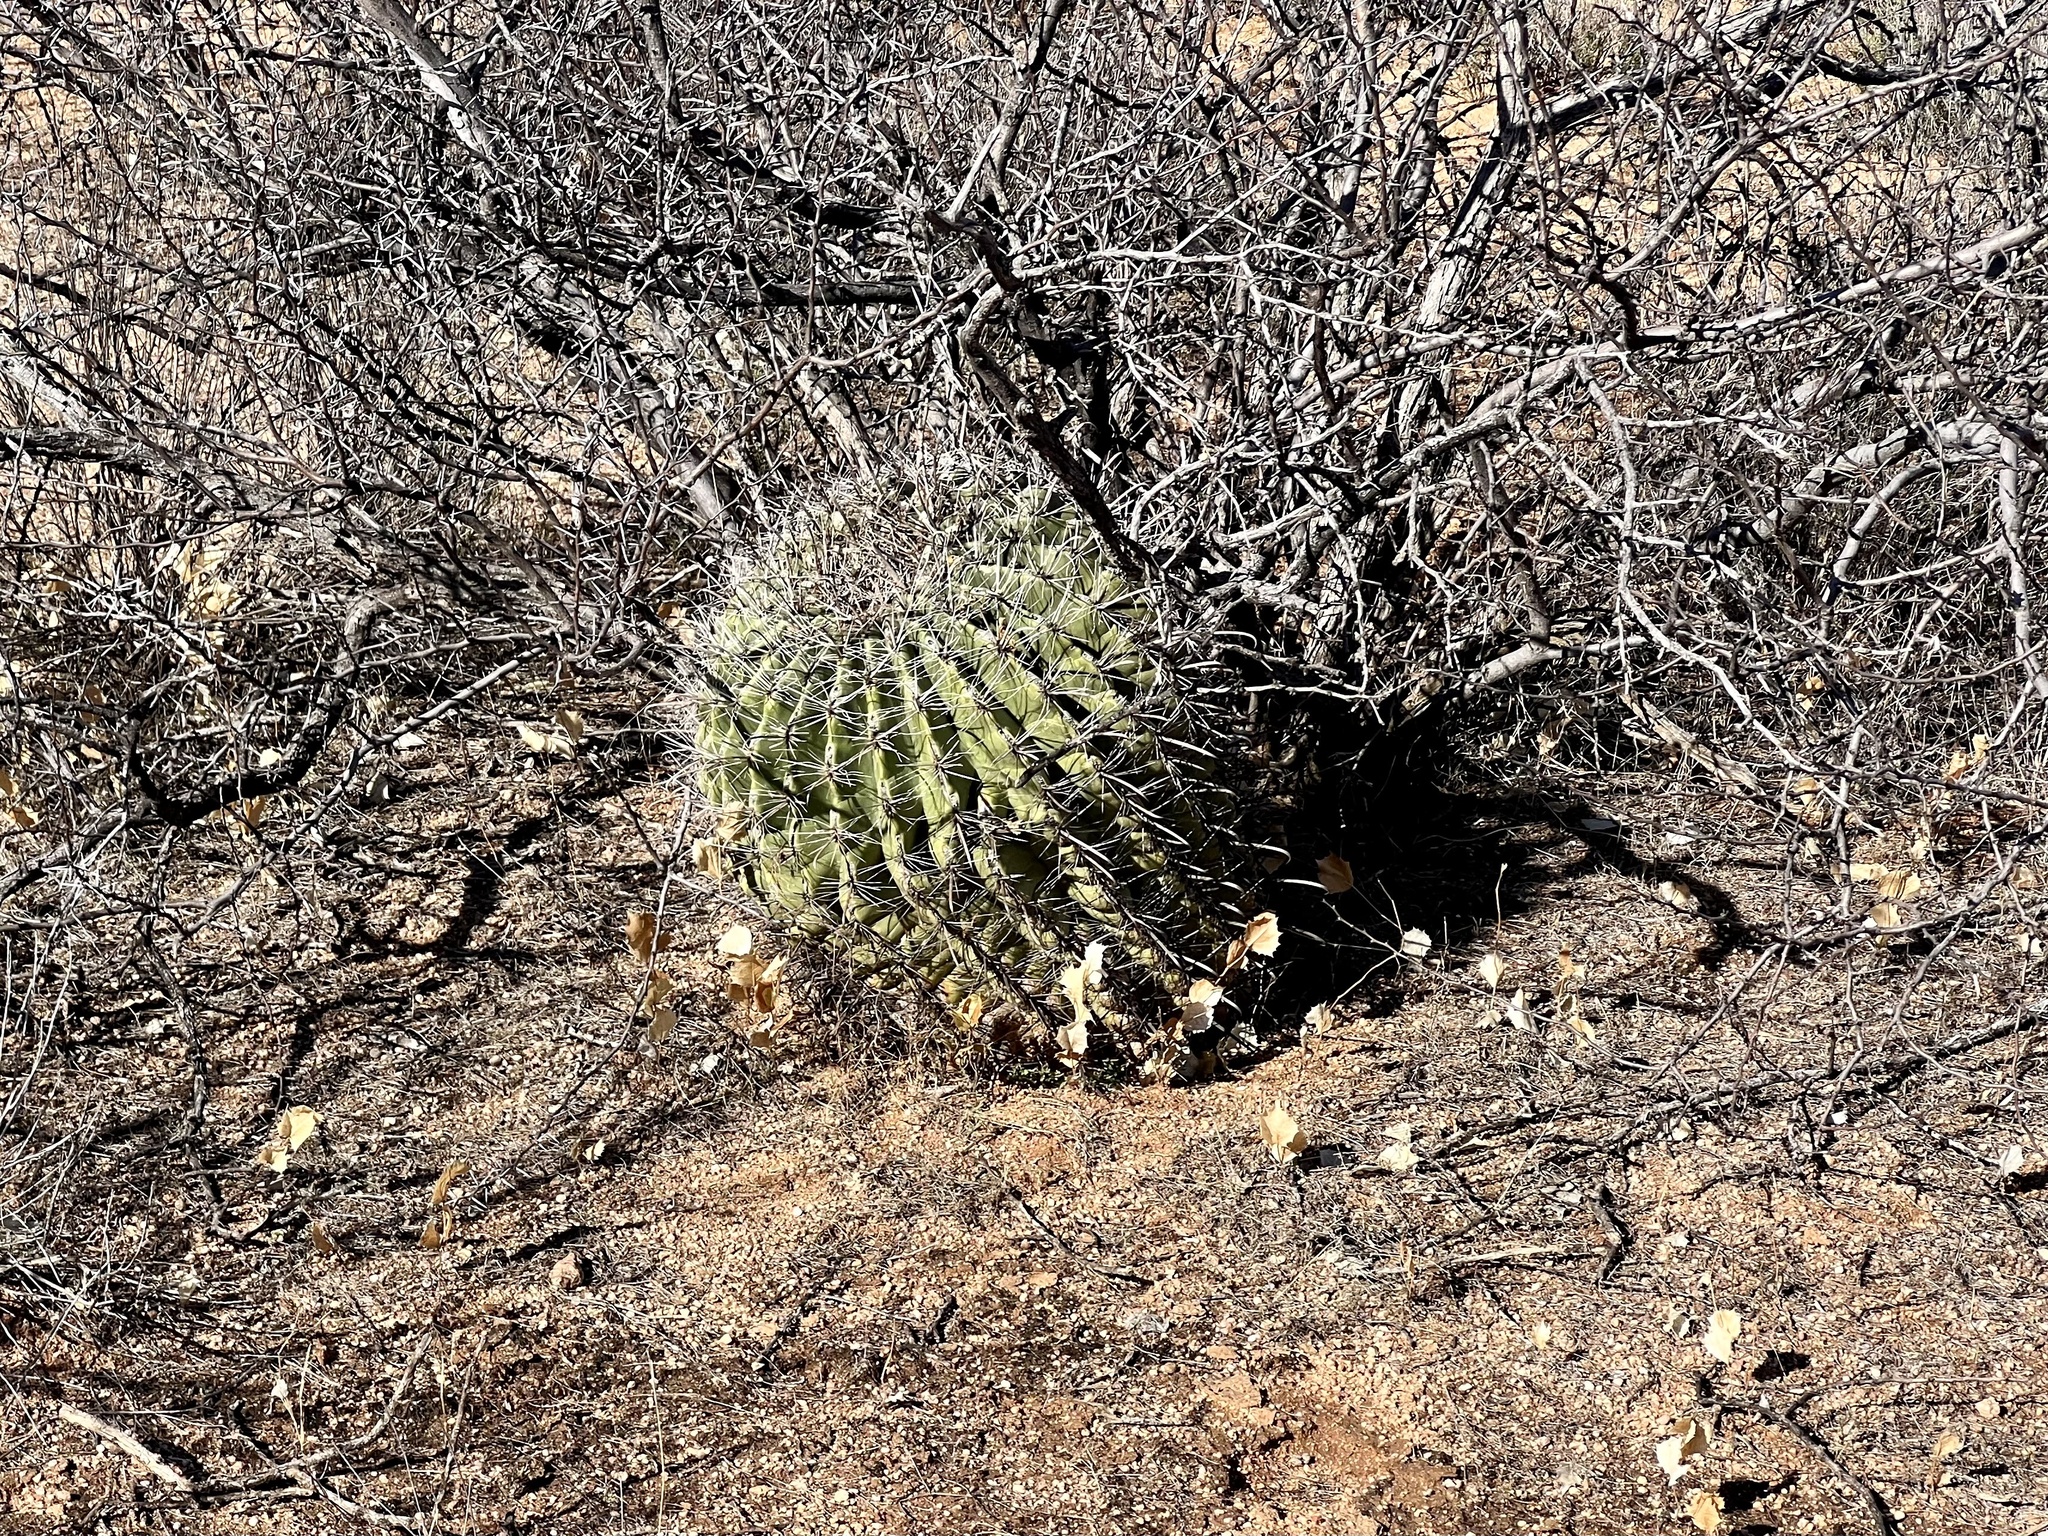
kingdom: Plantae
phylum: Tracheophyta
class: Magnoliopsida
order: Caryophyllales
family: Cactaceae
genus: Ferocactus
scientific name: Ferocactus wislizeni
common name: Candy barrel cactus
